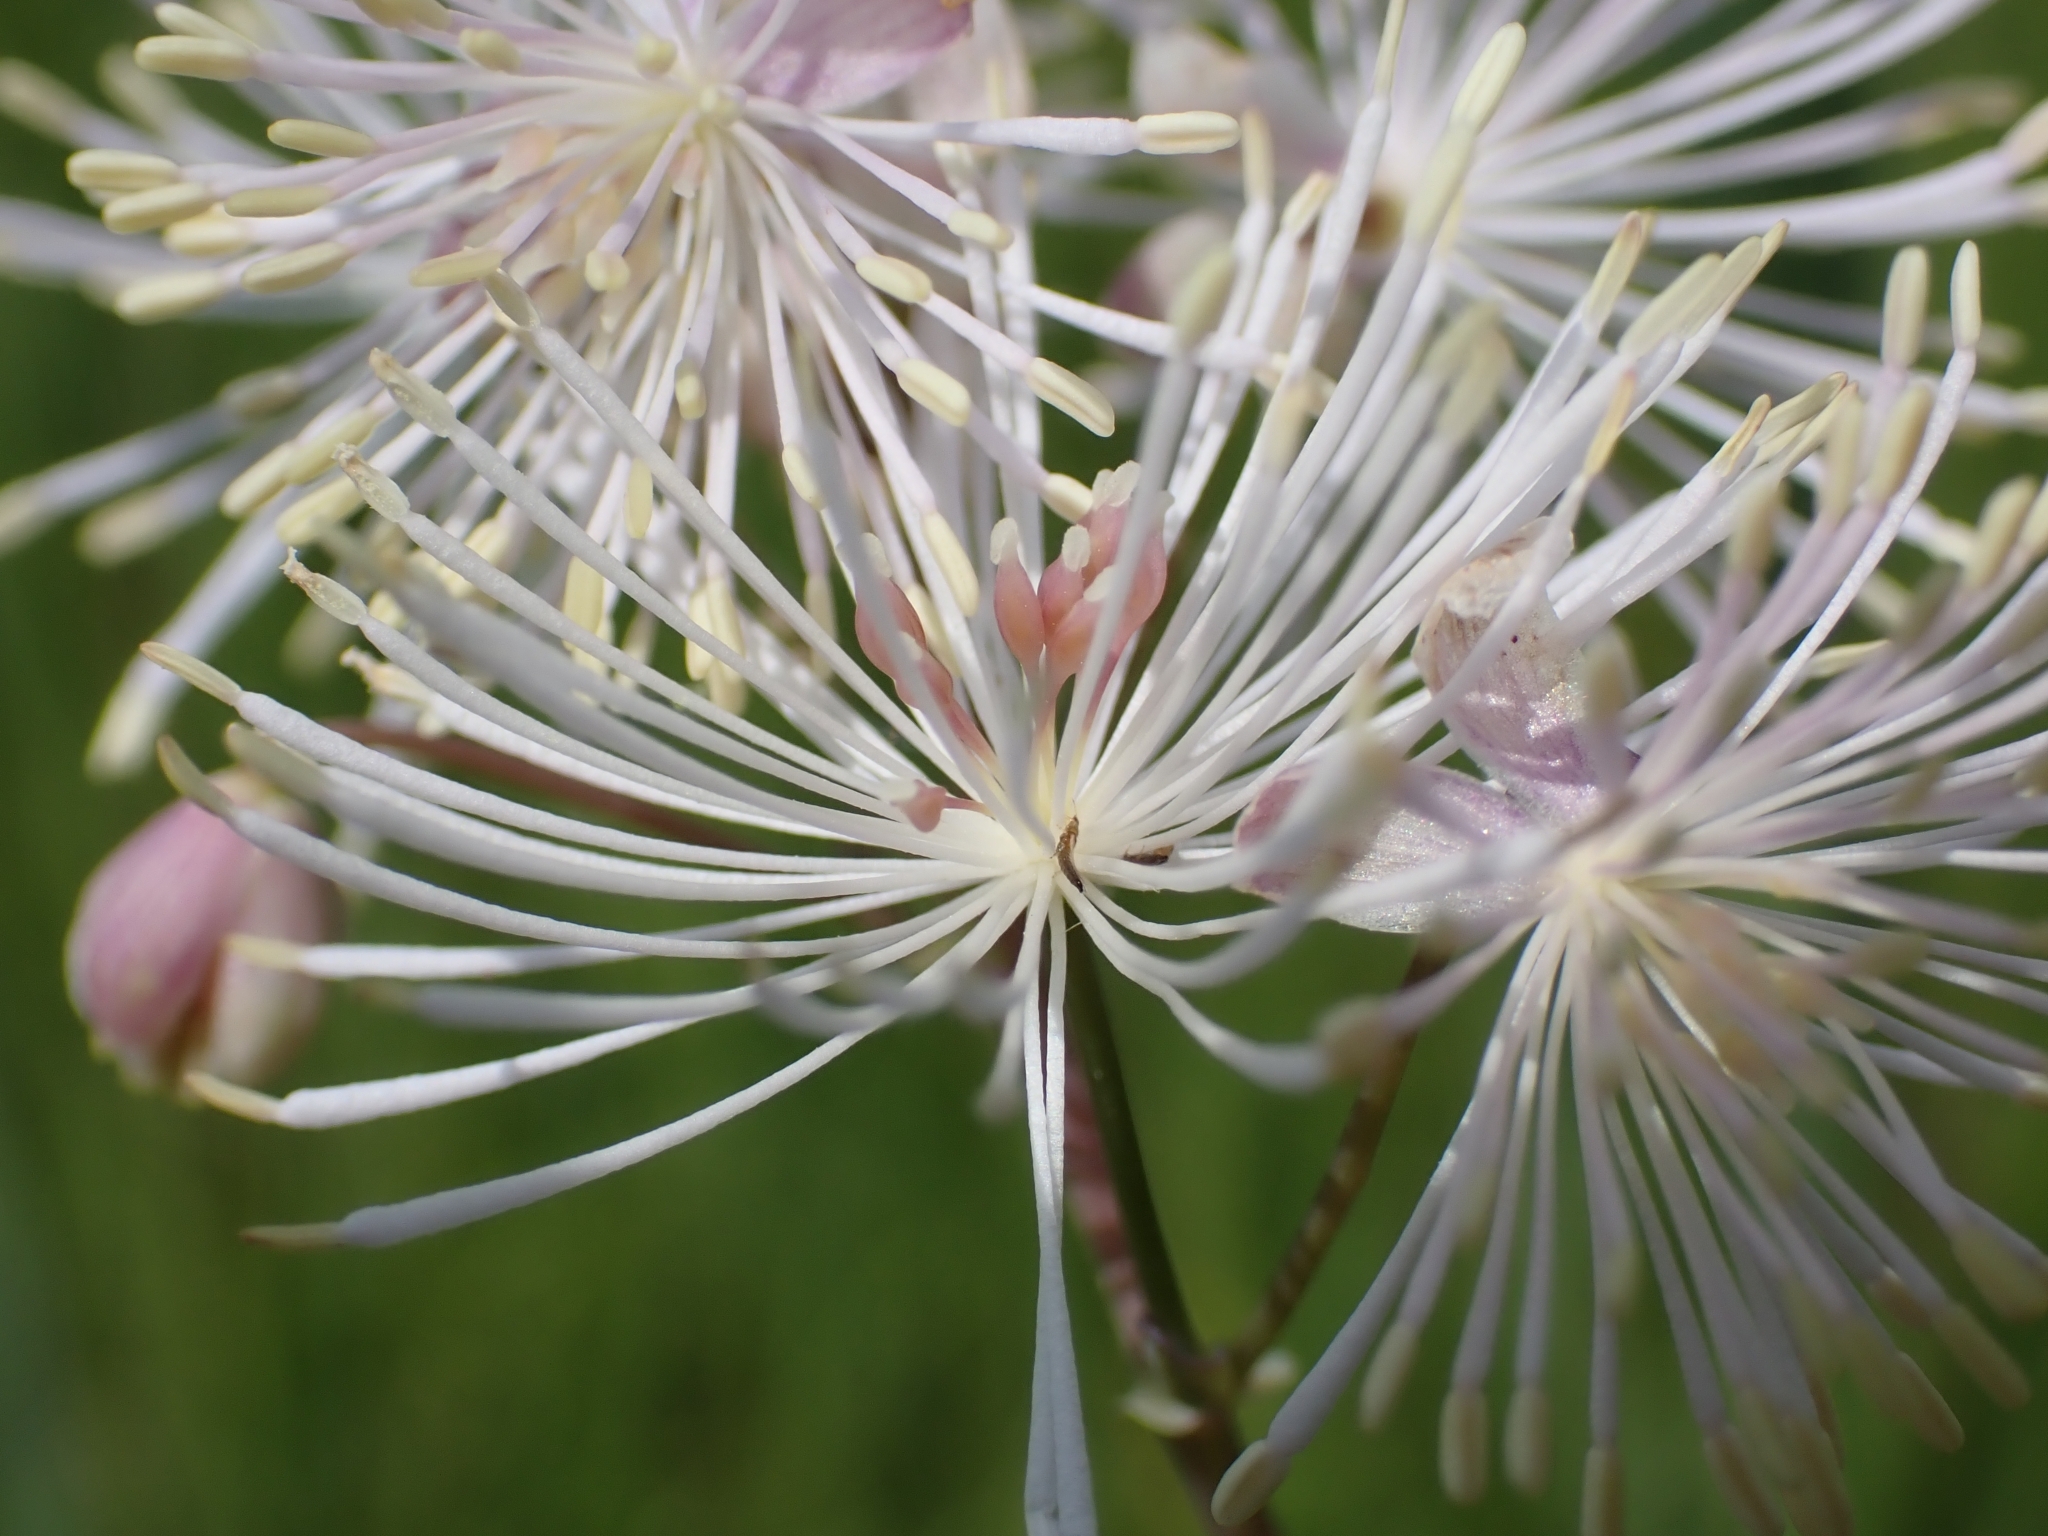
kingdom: Plantae
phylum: Tracheophyta
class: Magnoliopsida
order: Ranunculales
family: Ranunculaceae
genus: Thalictrum
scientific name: Thalictrum aquilegiifolium
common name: French meadow-rue
